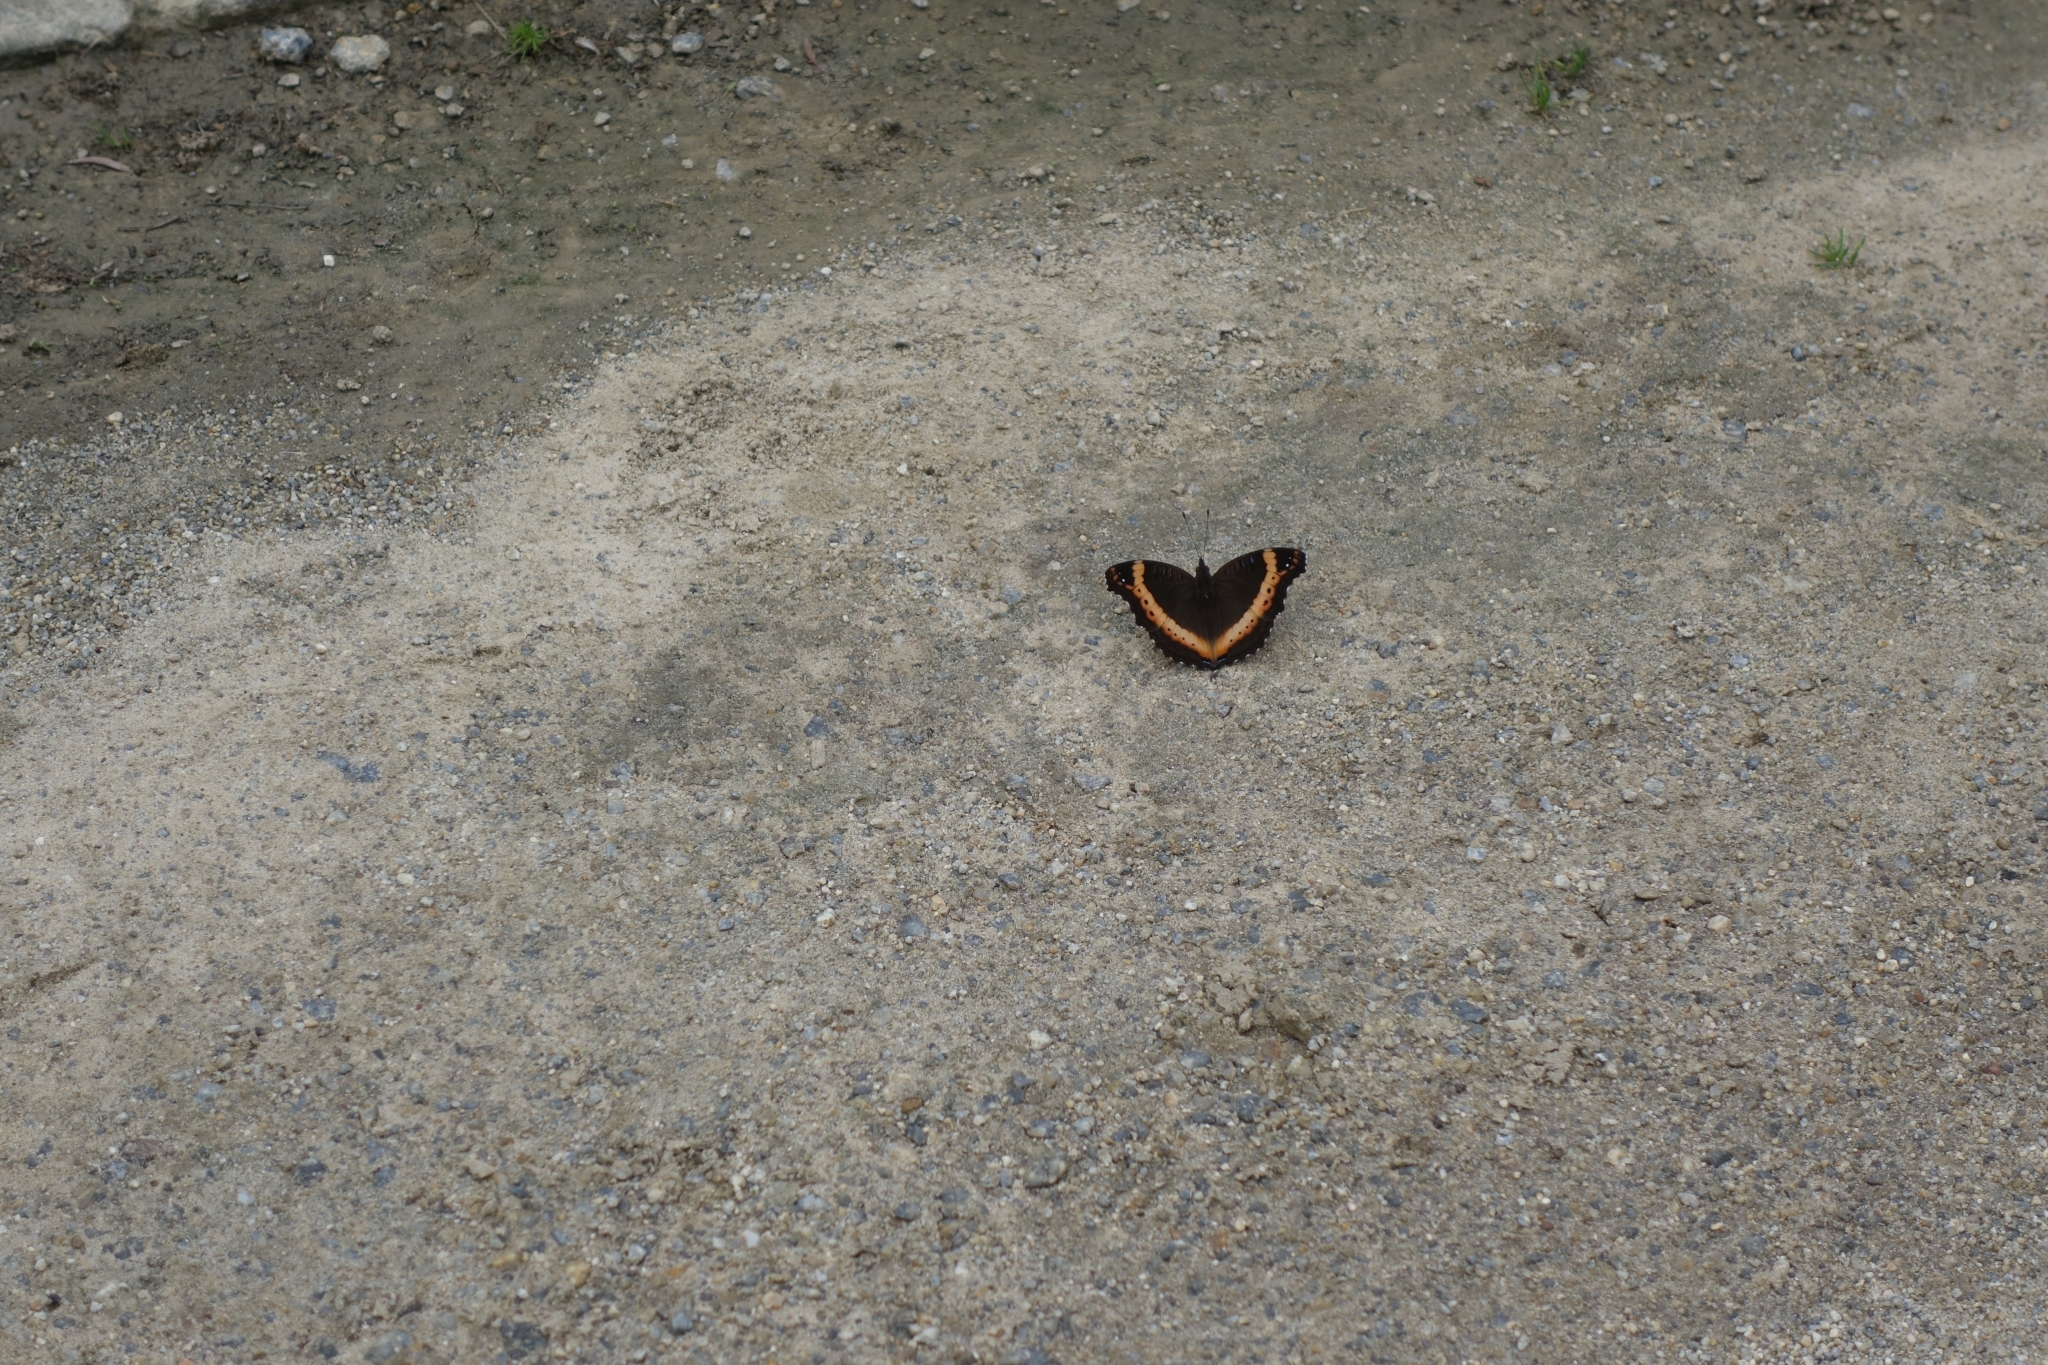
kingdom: Animalia
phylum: Arthropoda
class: Insecta
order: Lepidoptera
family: Nymphalidae
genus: Junonia
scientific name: Junonia archesia
